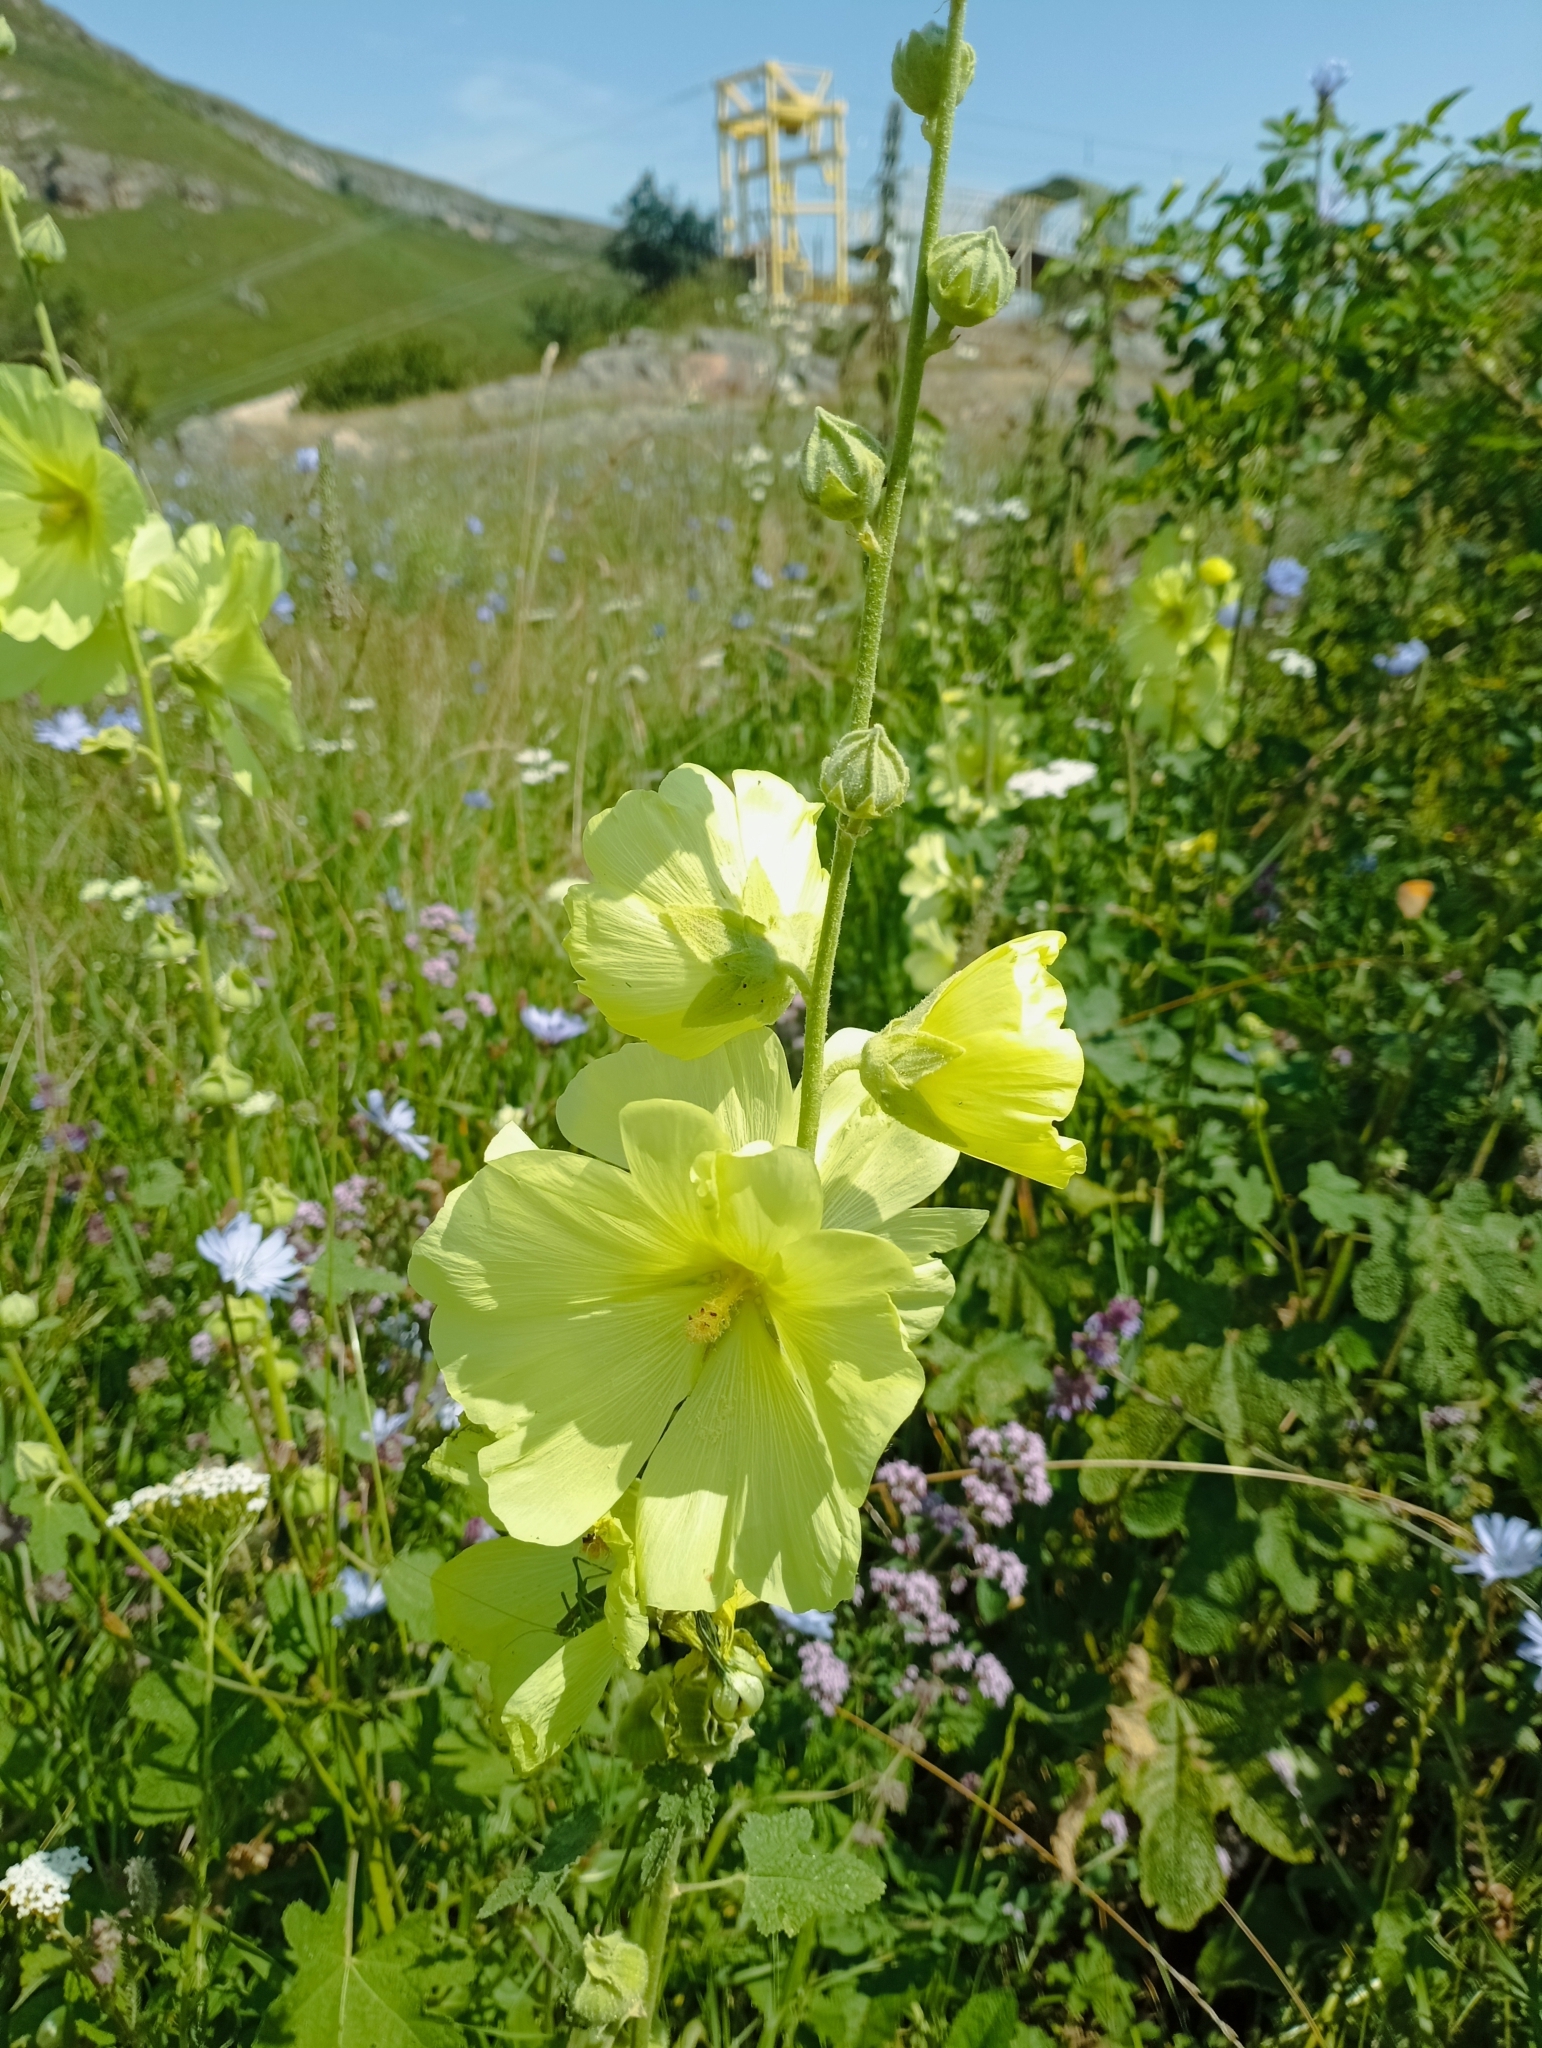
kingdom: Plantae
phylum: Tracheophyta
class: Magnoliopsida
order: Malvales
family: Malvaceae
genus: Alcea
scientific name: Alcea rugosa
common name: Russian hollyhock
